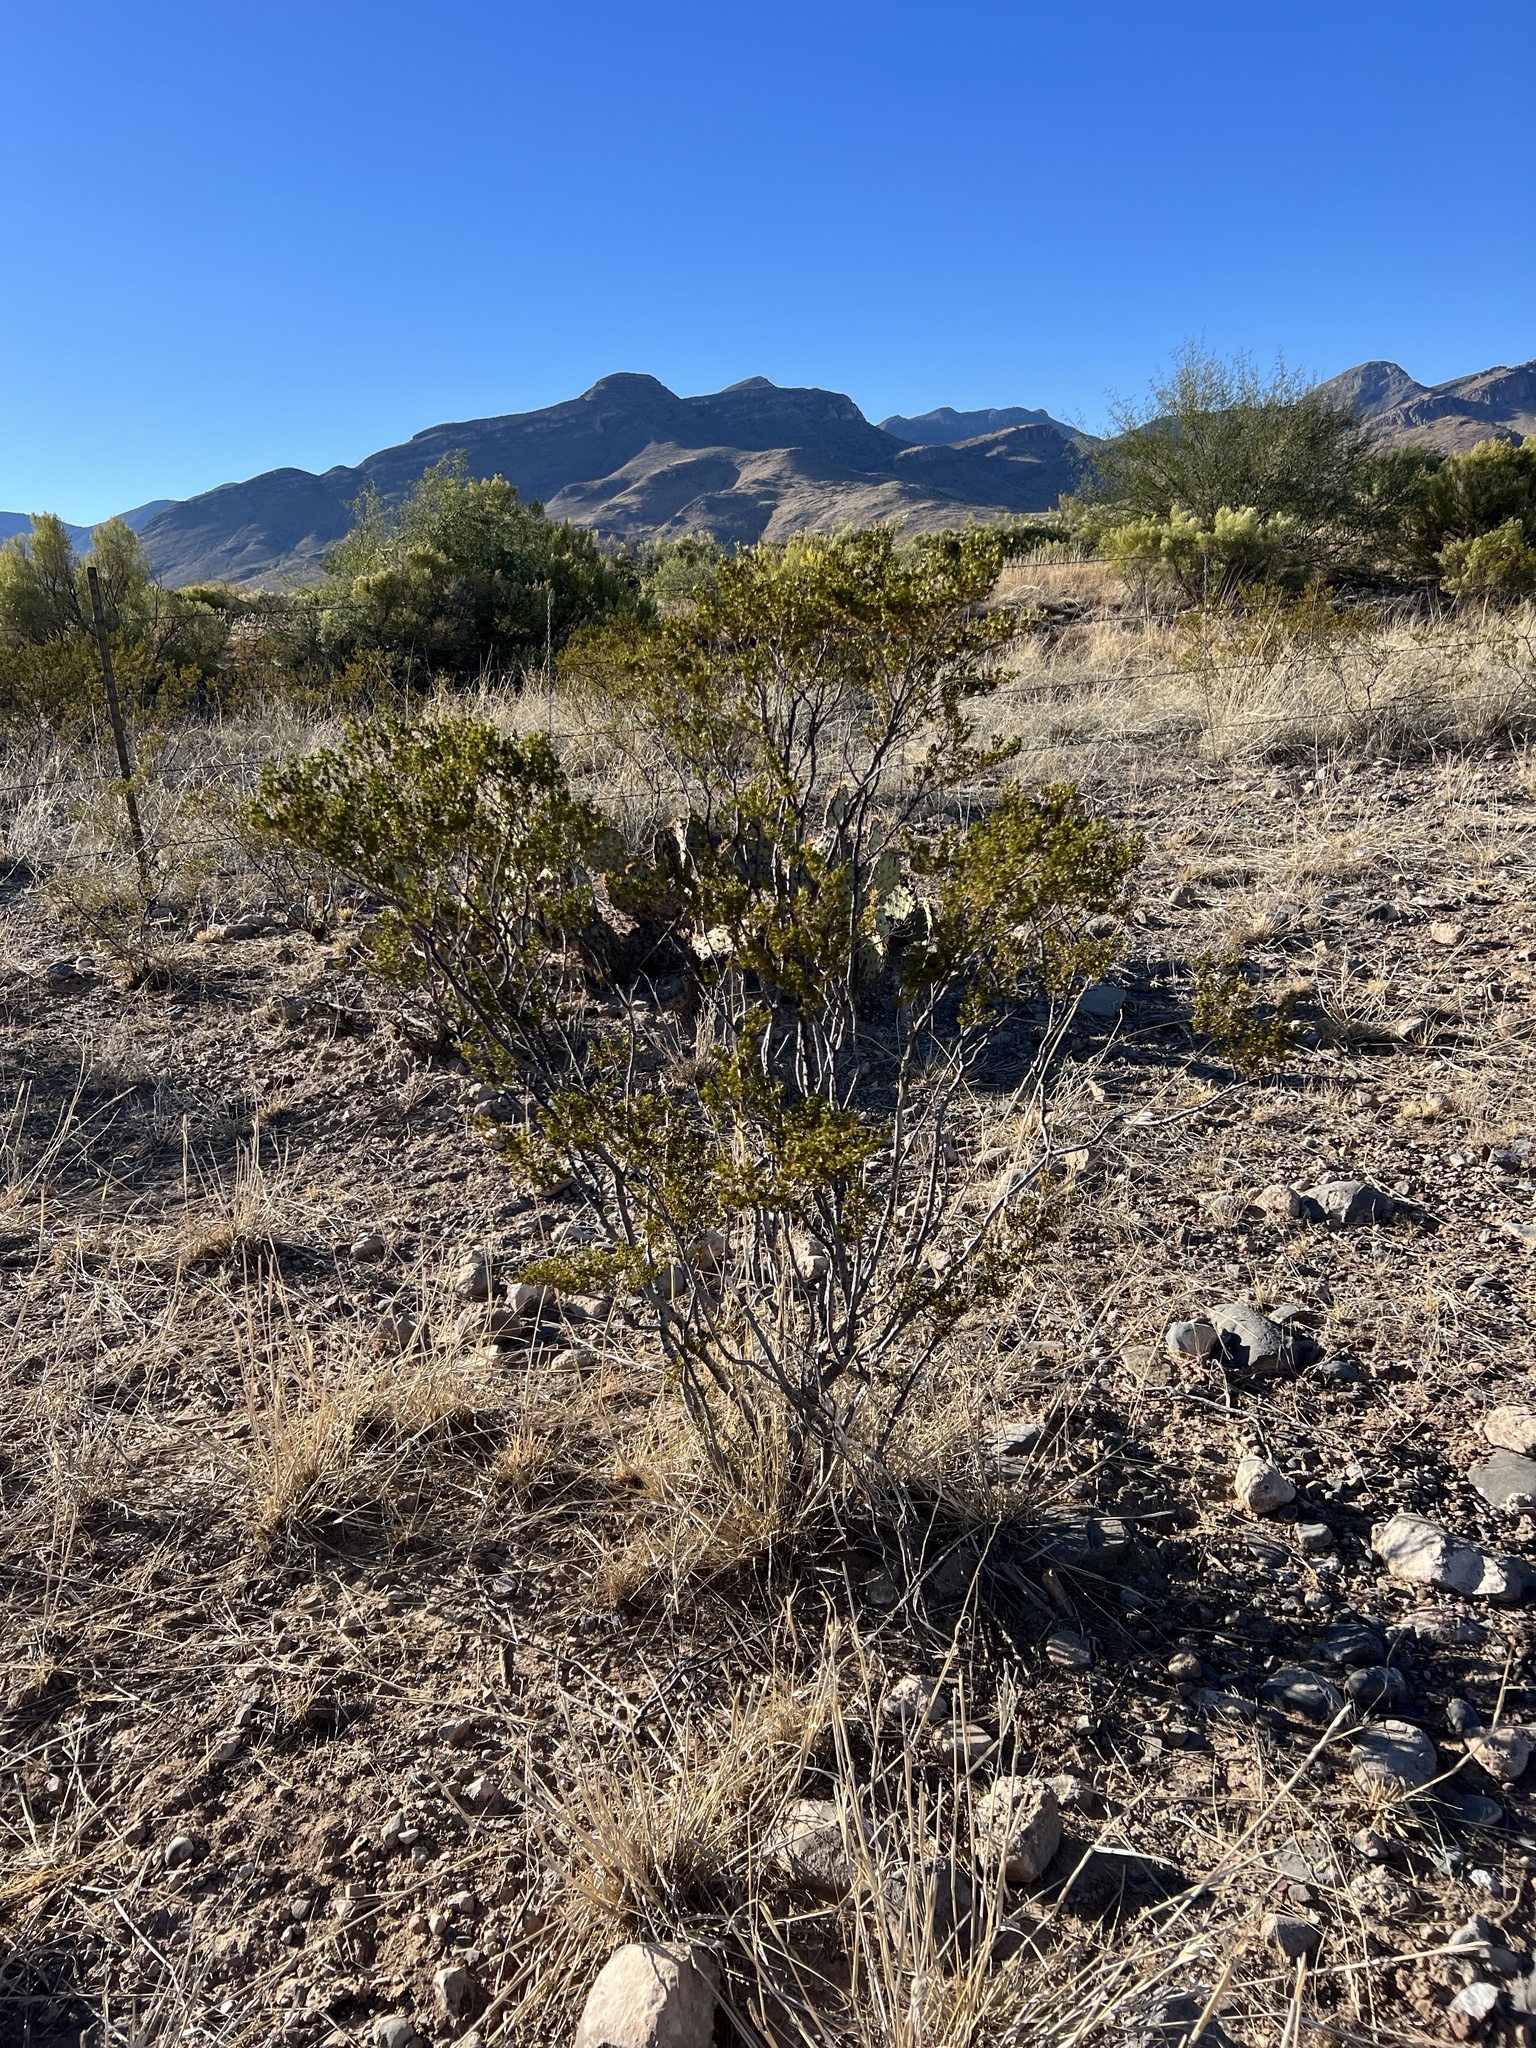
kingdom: Plantae
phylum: Tracheophyta
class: Magnoliopsida
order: Zygophyllales
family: Zygophyllaceae
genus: Larrea
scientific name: Larrea tridentata
